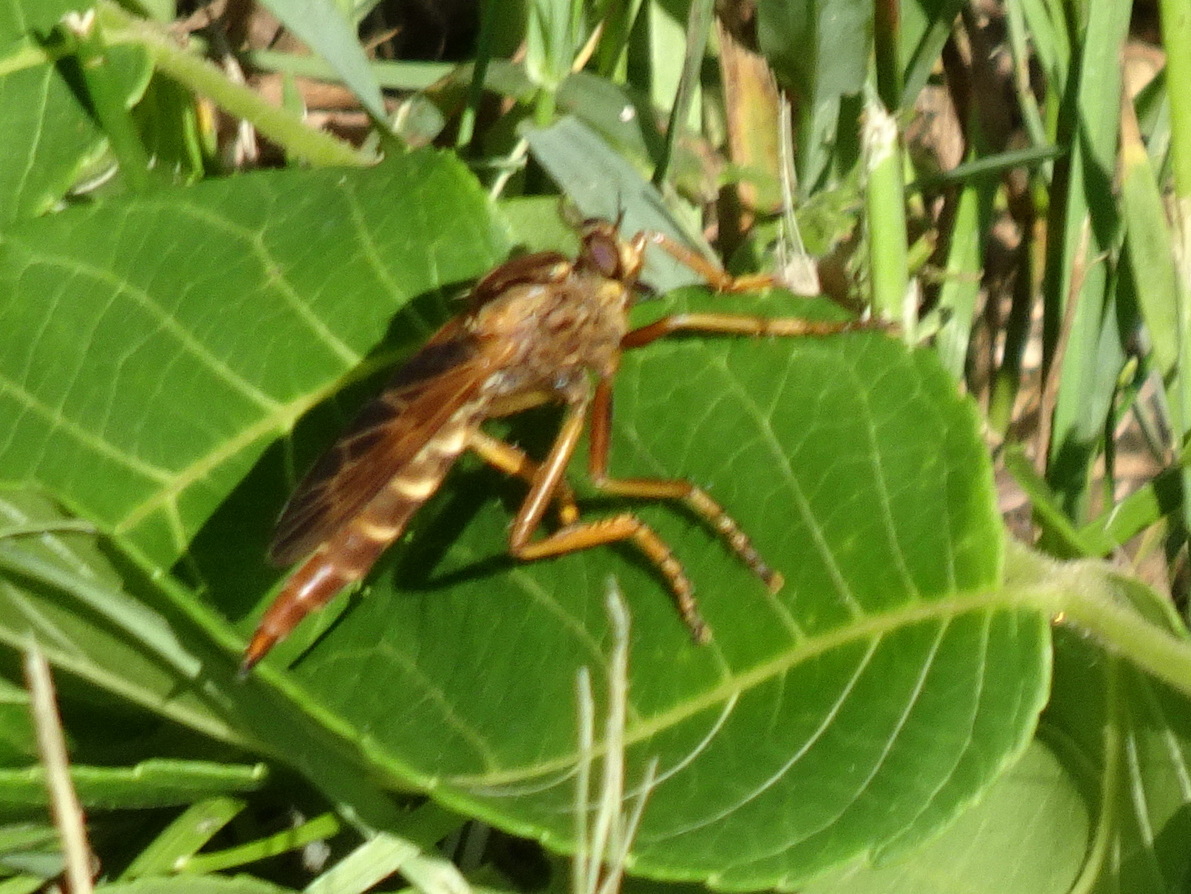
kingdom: Animalia
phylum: Arthropoda
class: Insecta
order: Diptera
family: Asilidae
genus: Asilus
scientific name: Asilus sericeus
